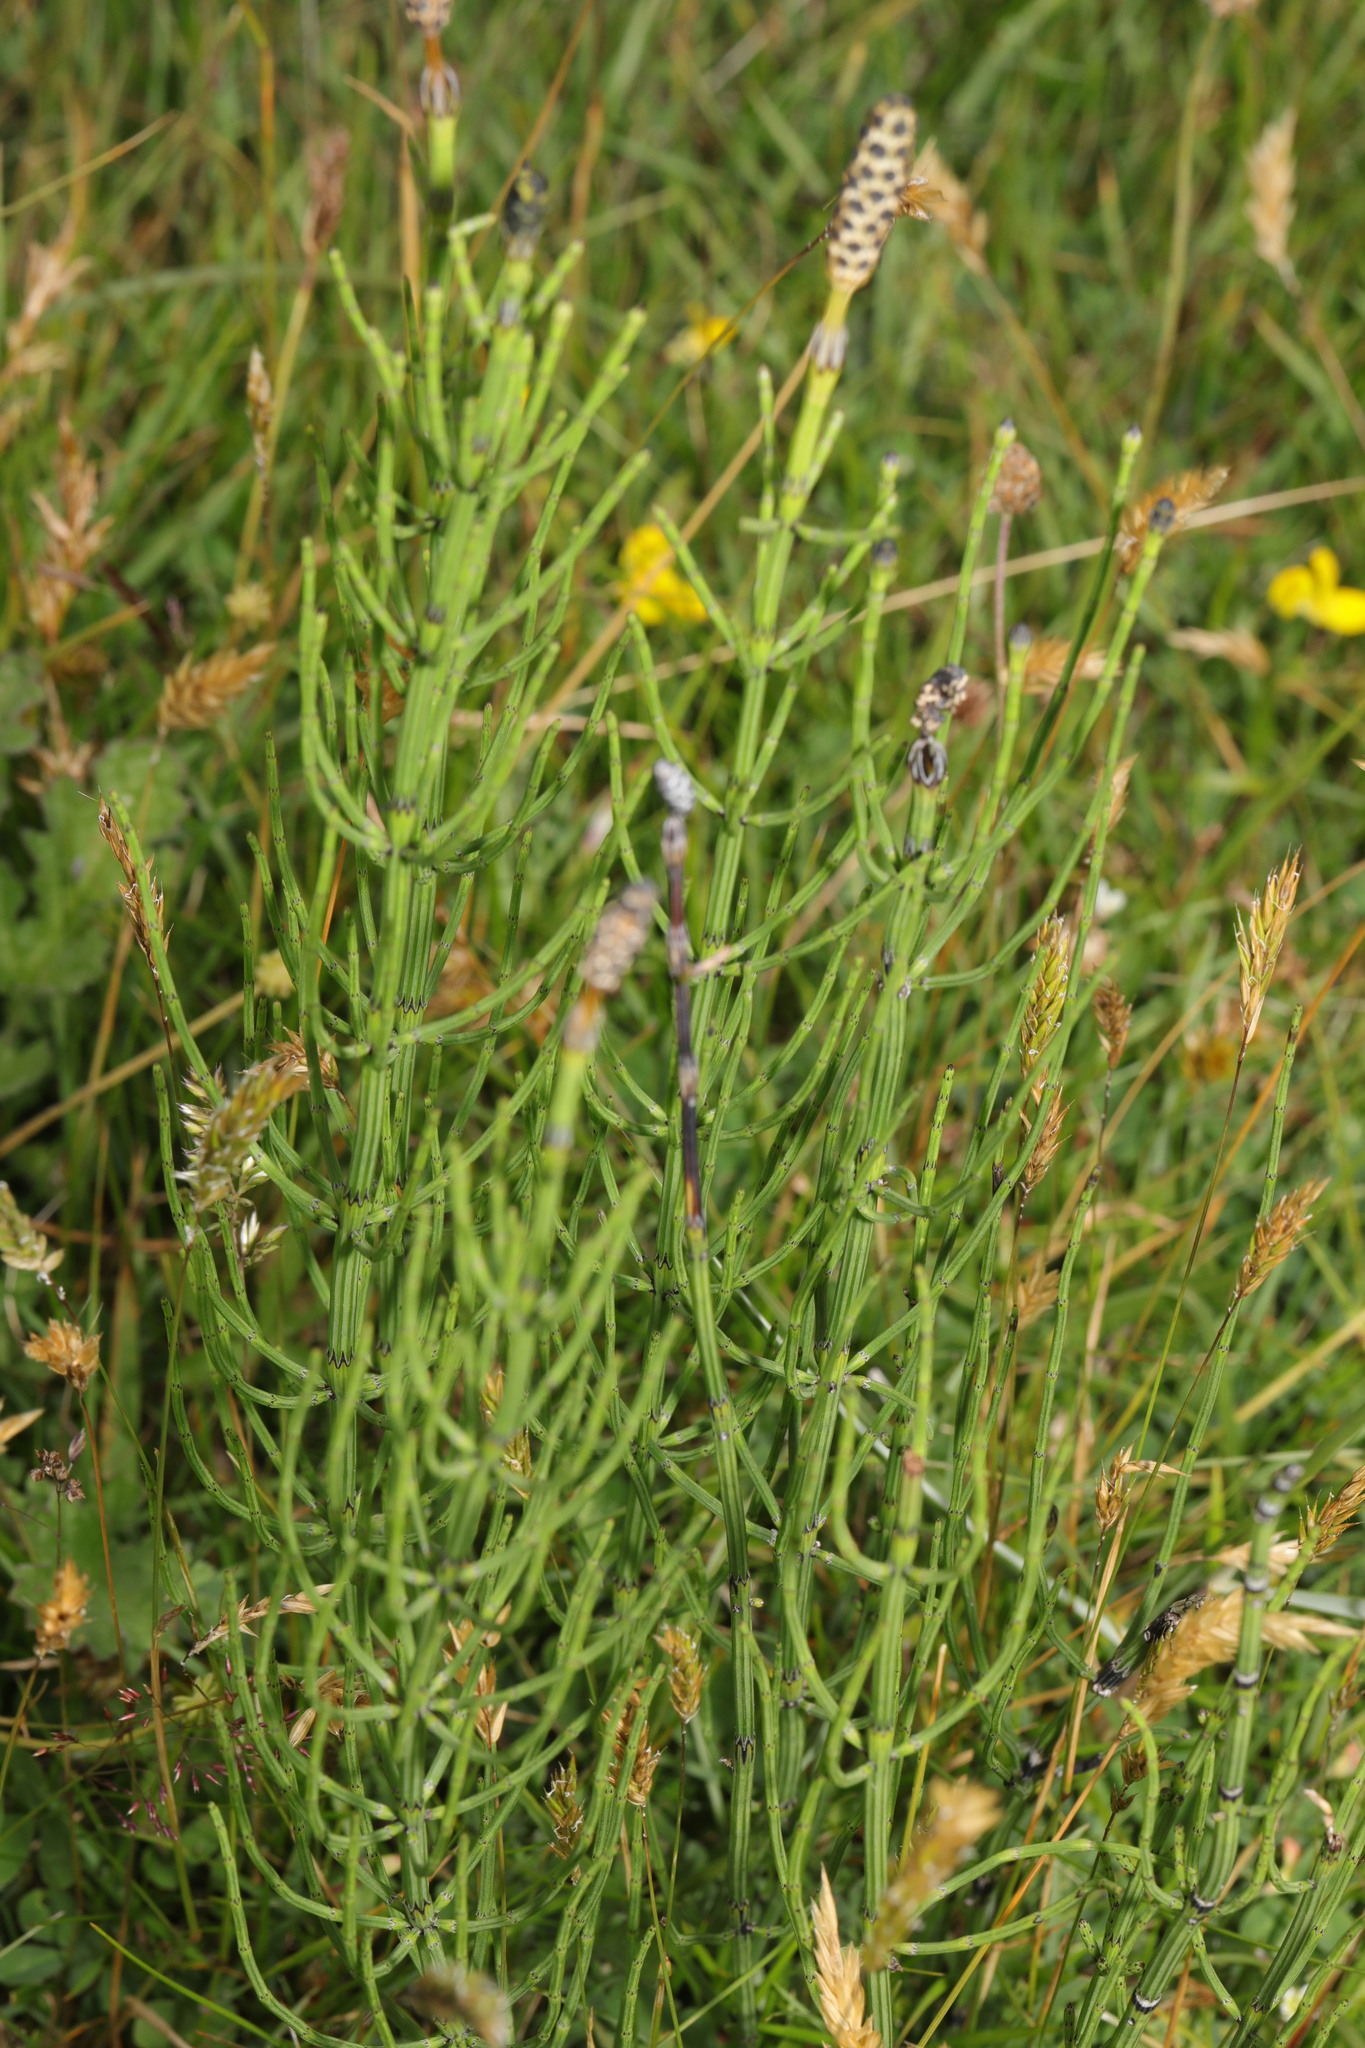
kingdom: Plantae
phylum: Tracheophyta
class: Polypodiopsida
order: Equisetales
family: Equisetaceae
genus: Equisetum
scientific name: Equisetum palustre
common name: Marsh horsetail
